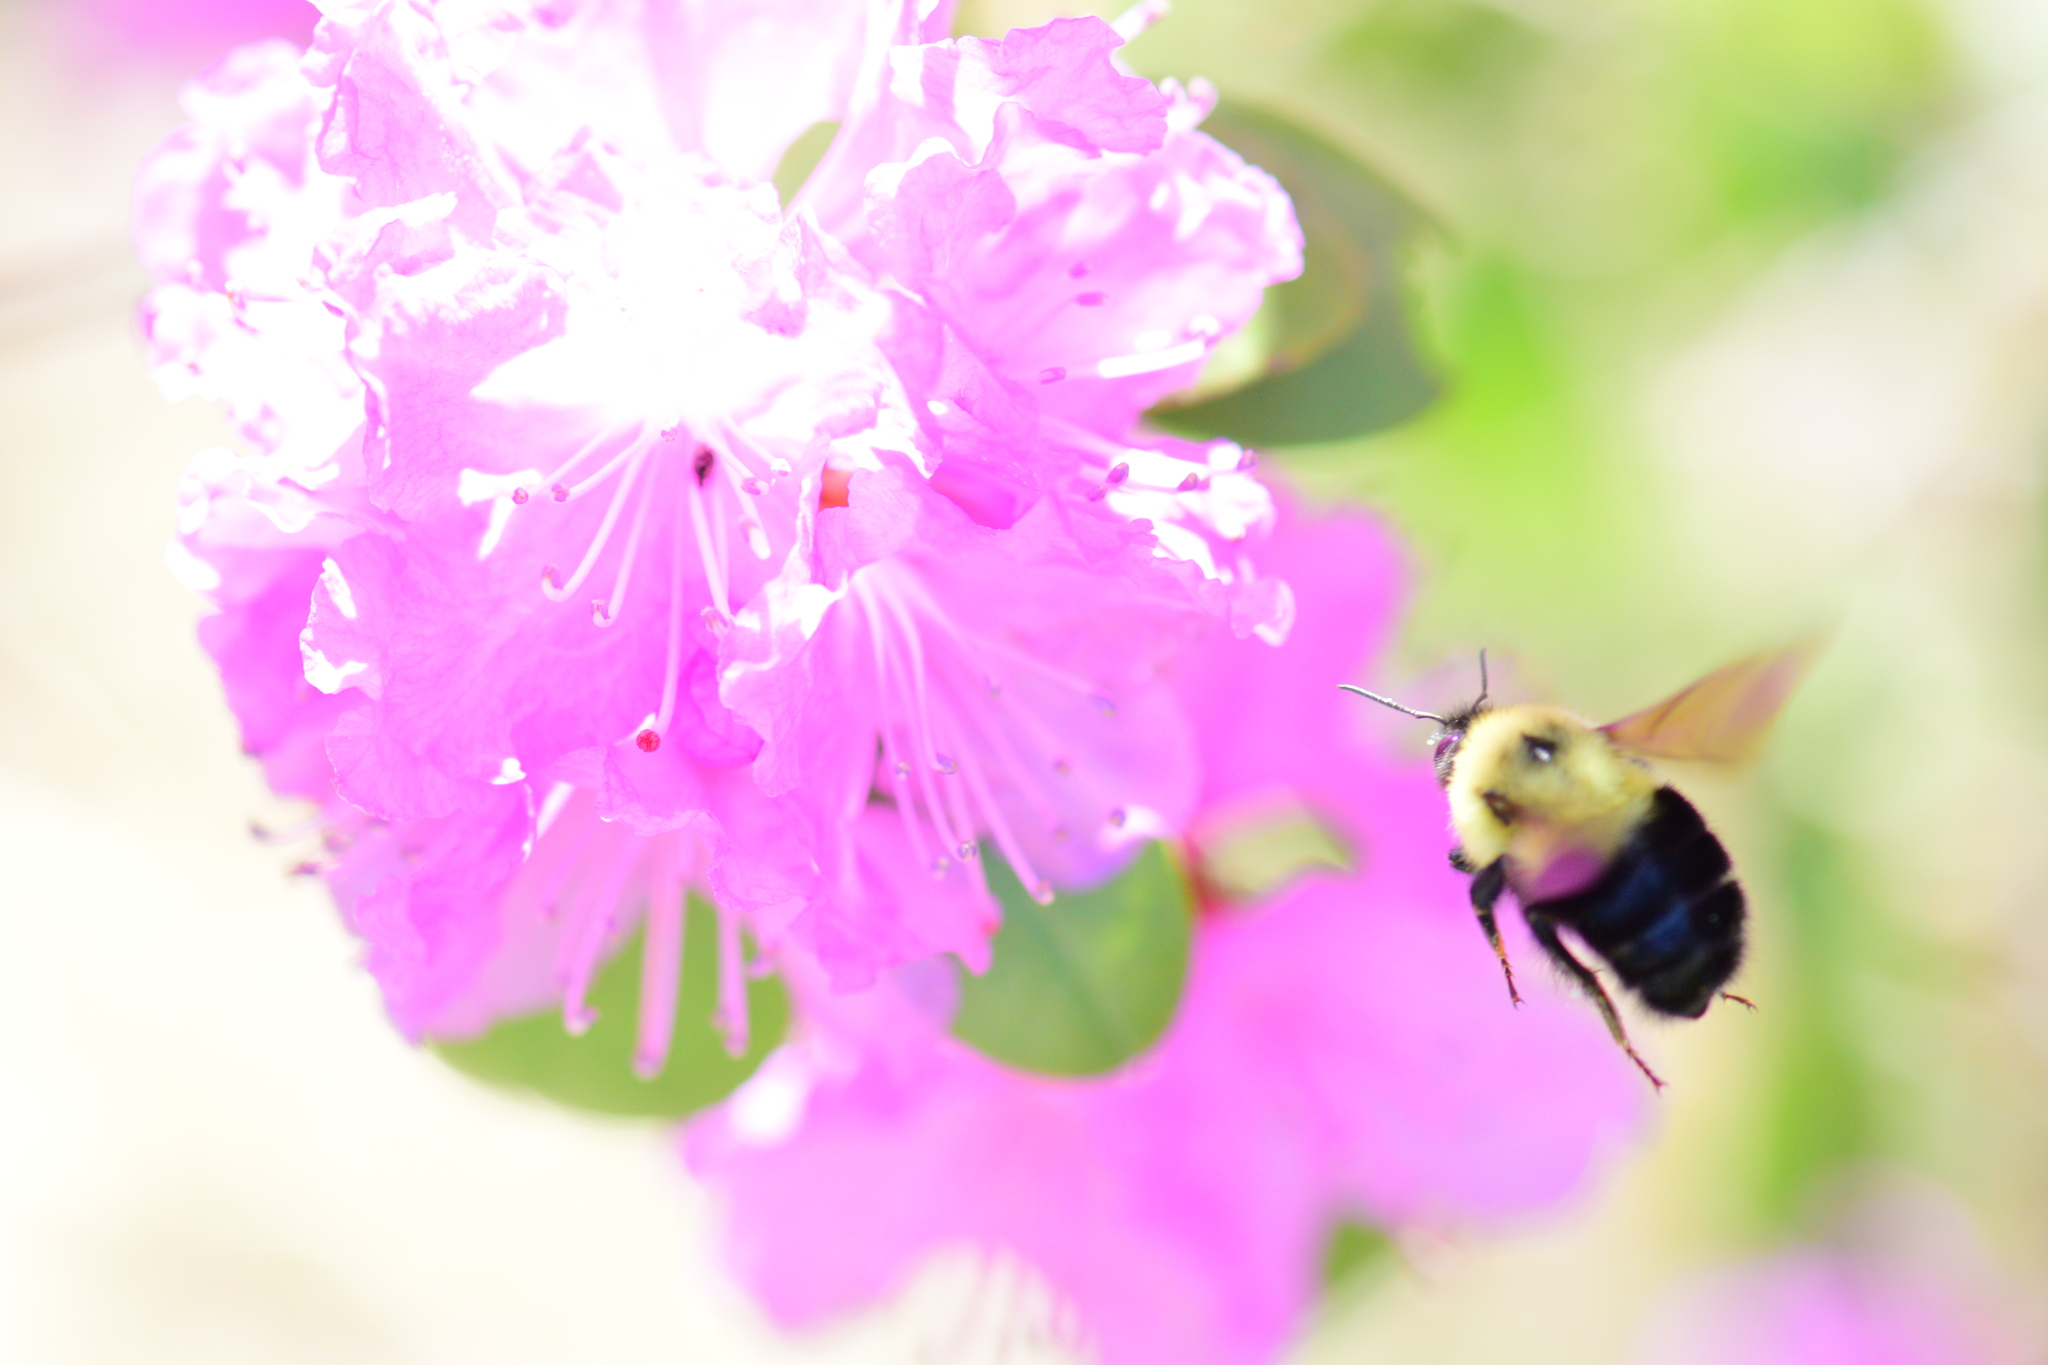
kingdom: Animalia
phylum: Arthropoda
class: Insecta
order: Hymenoptera
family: Apidae
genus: Bombus
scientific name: Bombus bimaculatus
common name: Two-spotted bumble bee
